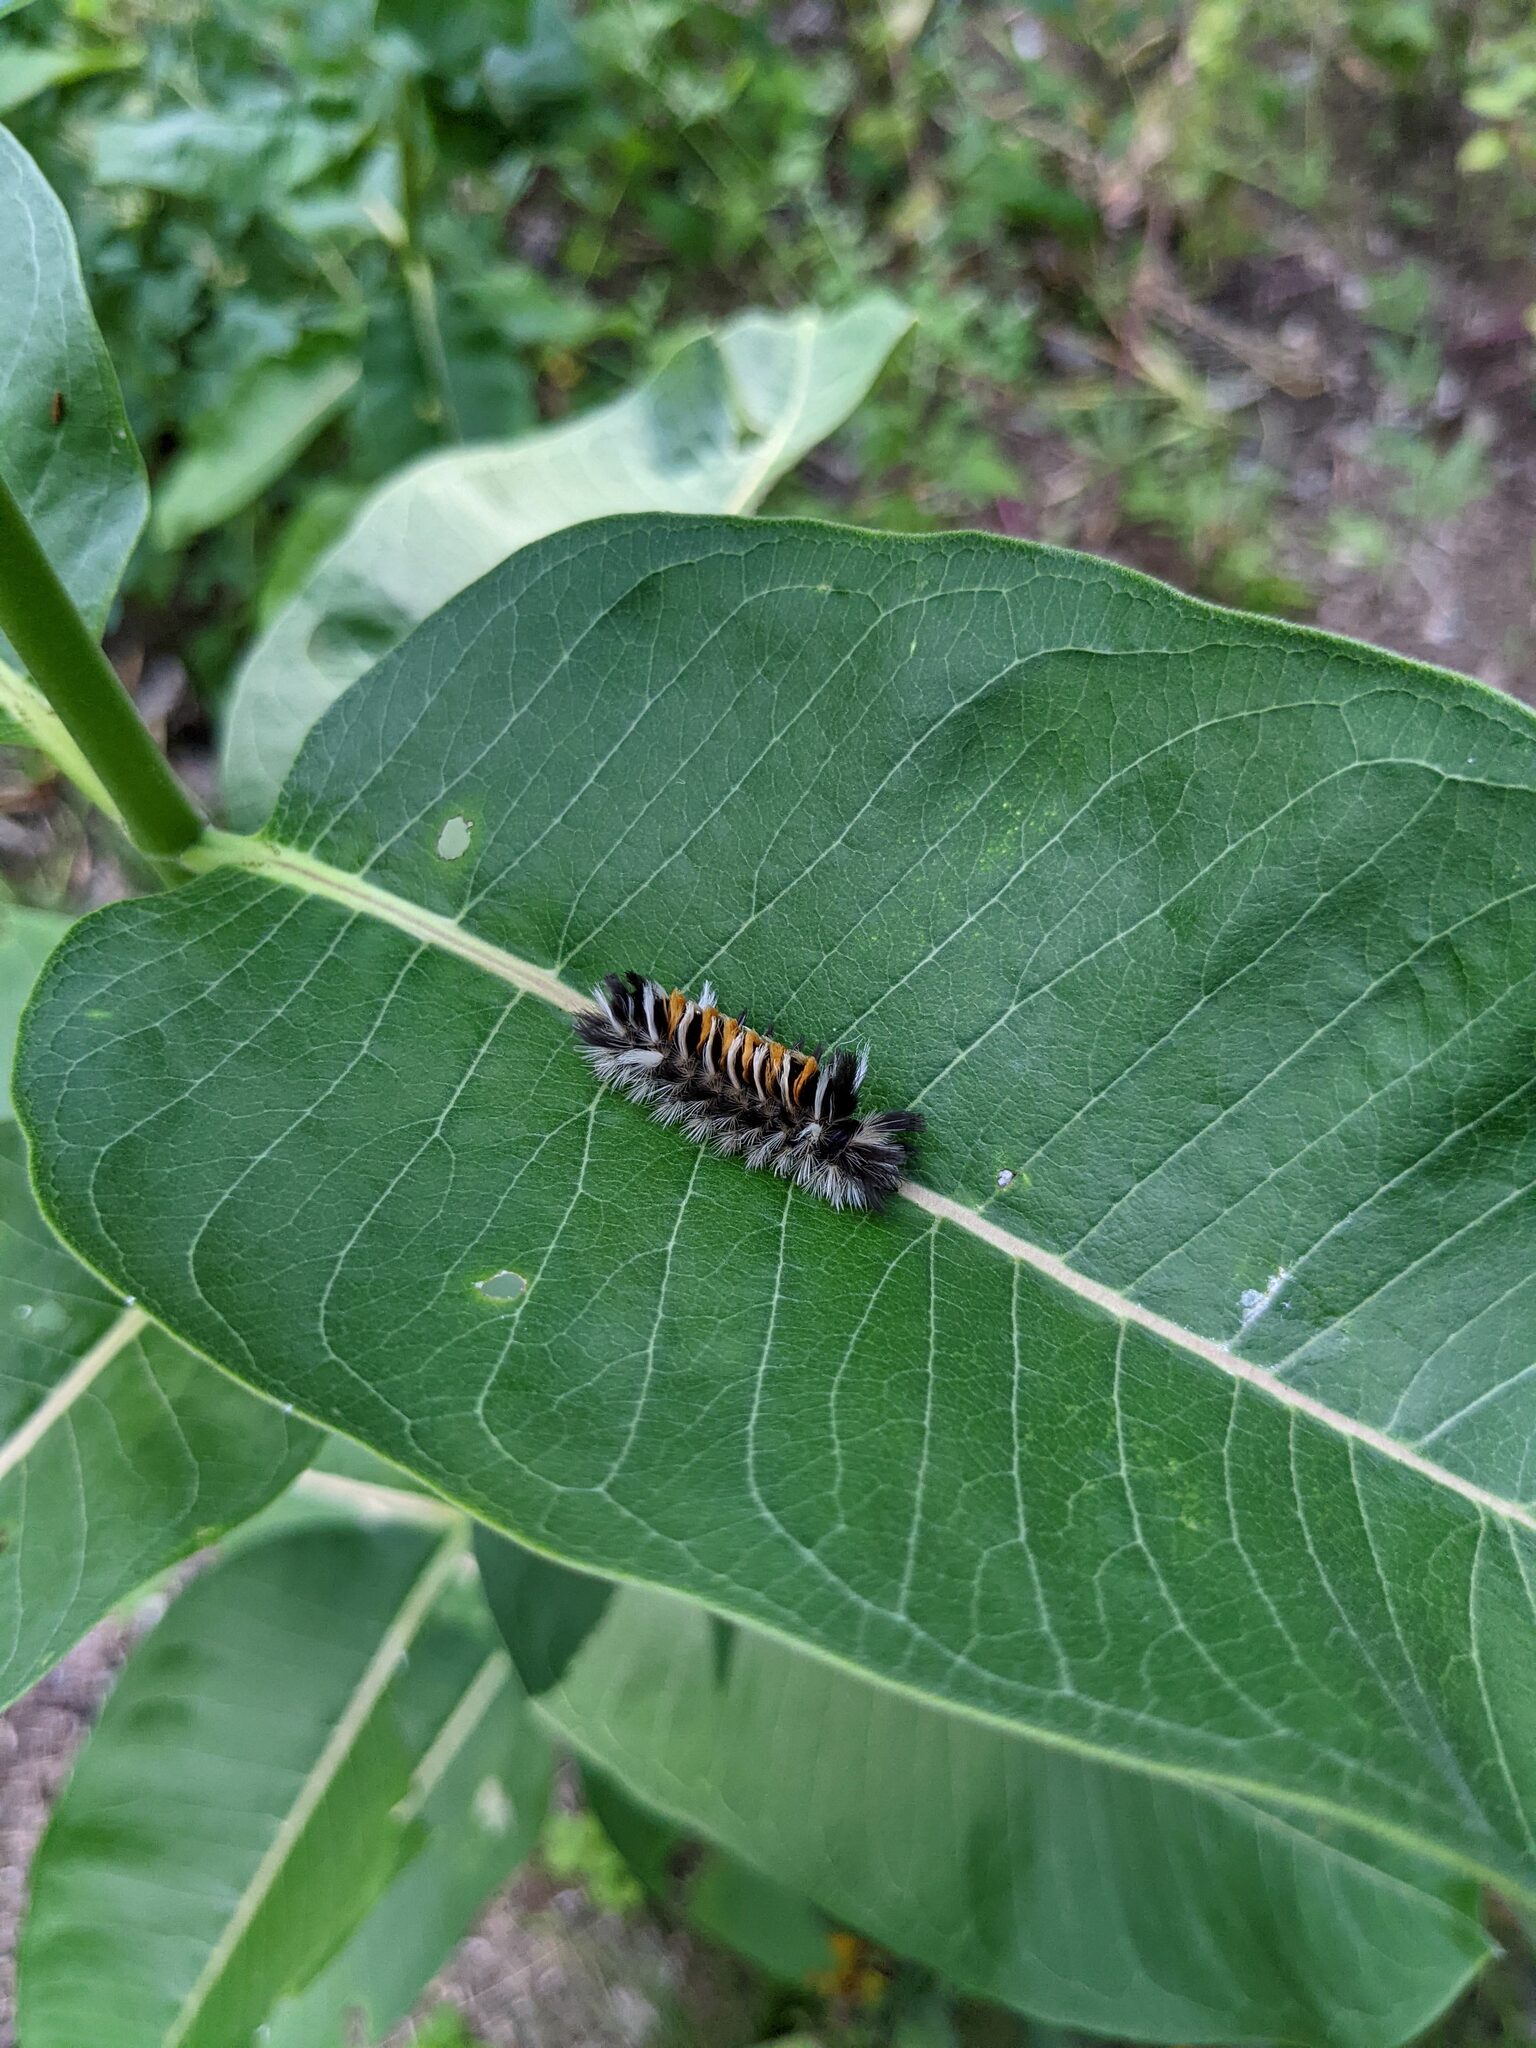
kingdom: Animalia
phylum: Arthropoda
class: Insecta
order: Lepidoptera
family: Erebidae
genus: Euchaetes
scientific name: Euchaetes egle
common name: Milkweed tussock moth
